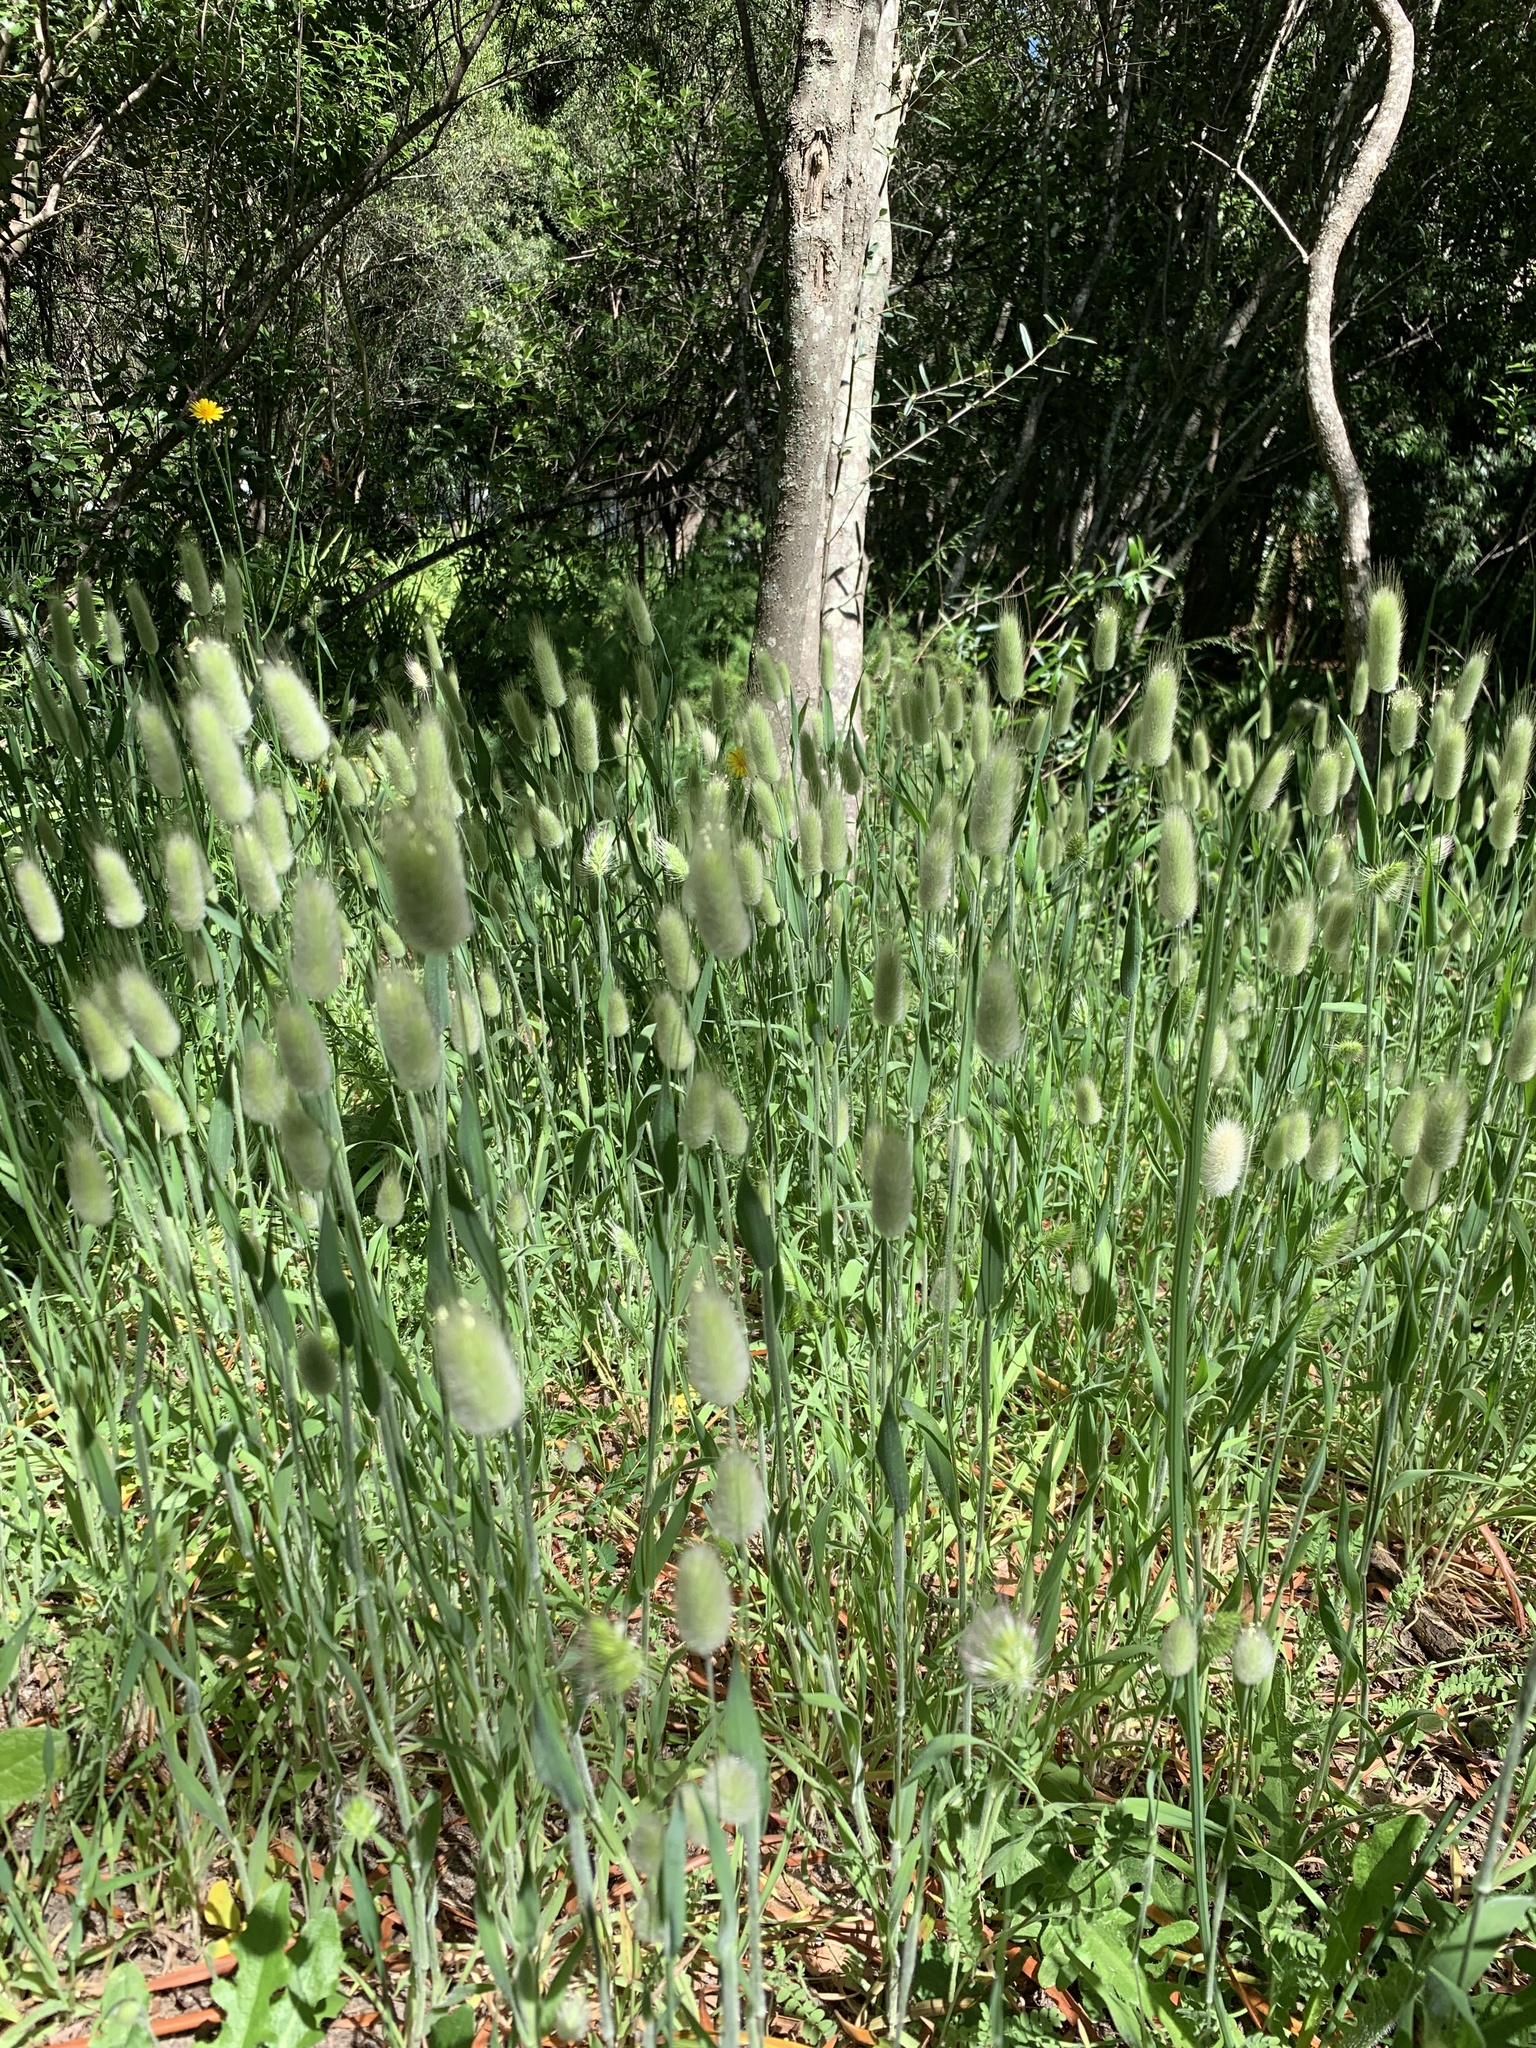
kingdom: Plantae
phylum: Tracheophyta
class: Liliopsida
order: Poales
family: Poaceae
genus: Lagurus
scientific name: Lagurus ovatus
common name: Hare's-tail
